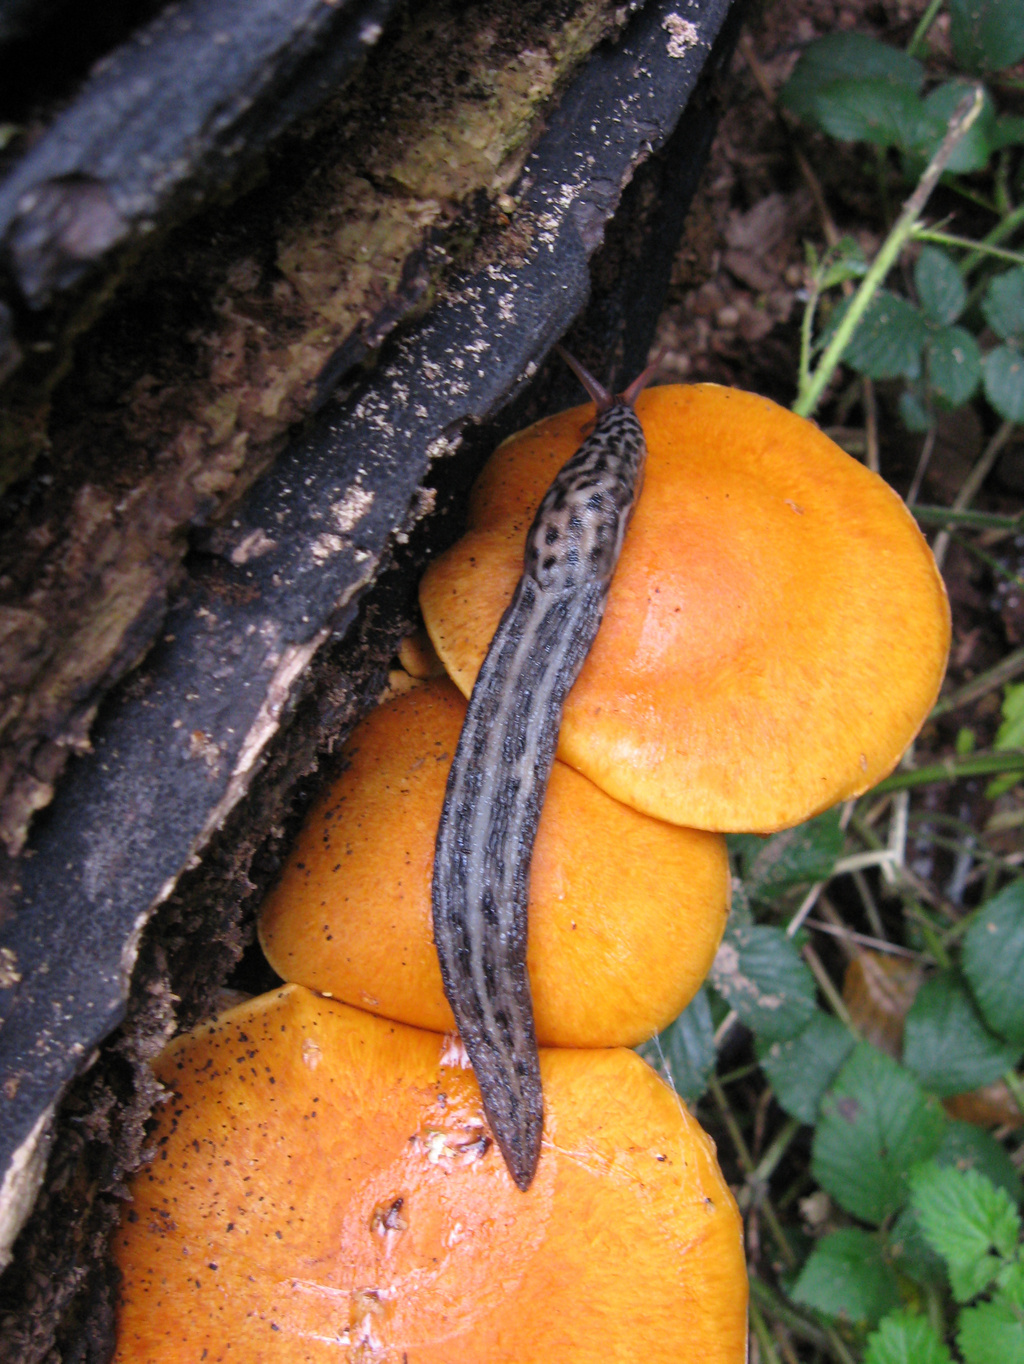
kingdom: Animalia
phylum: Mollusca
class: Gastropoda
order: Stylommatophora
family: Limacidae
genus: Limax
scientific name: Limax maximus
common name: Great grey slug
